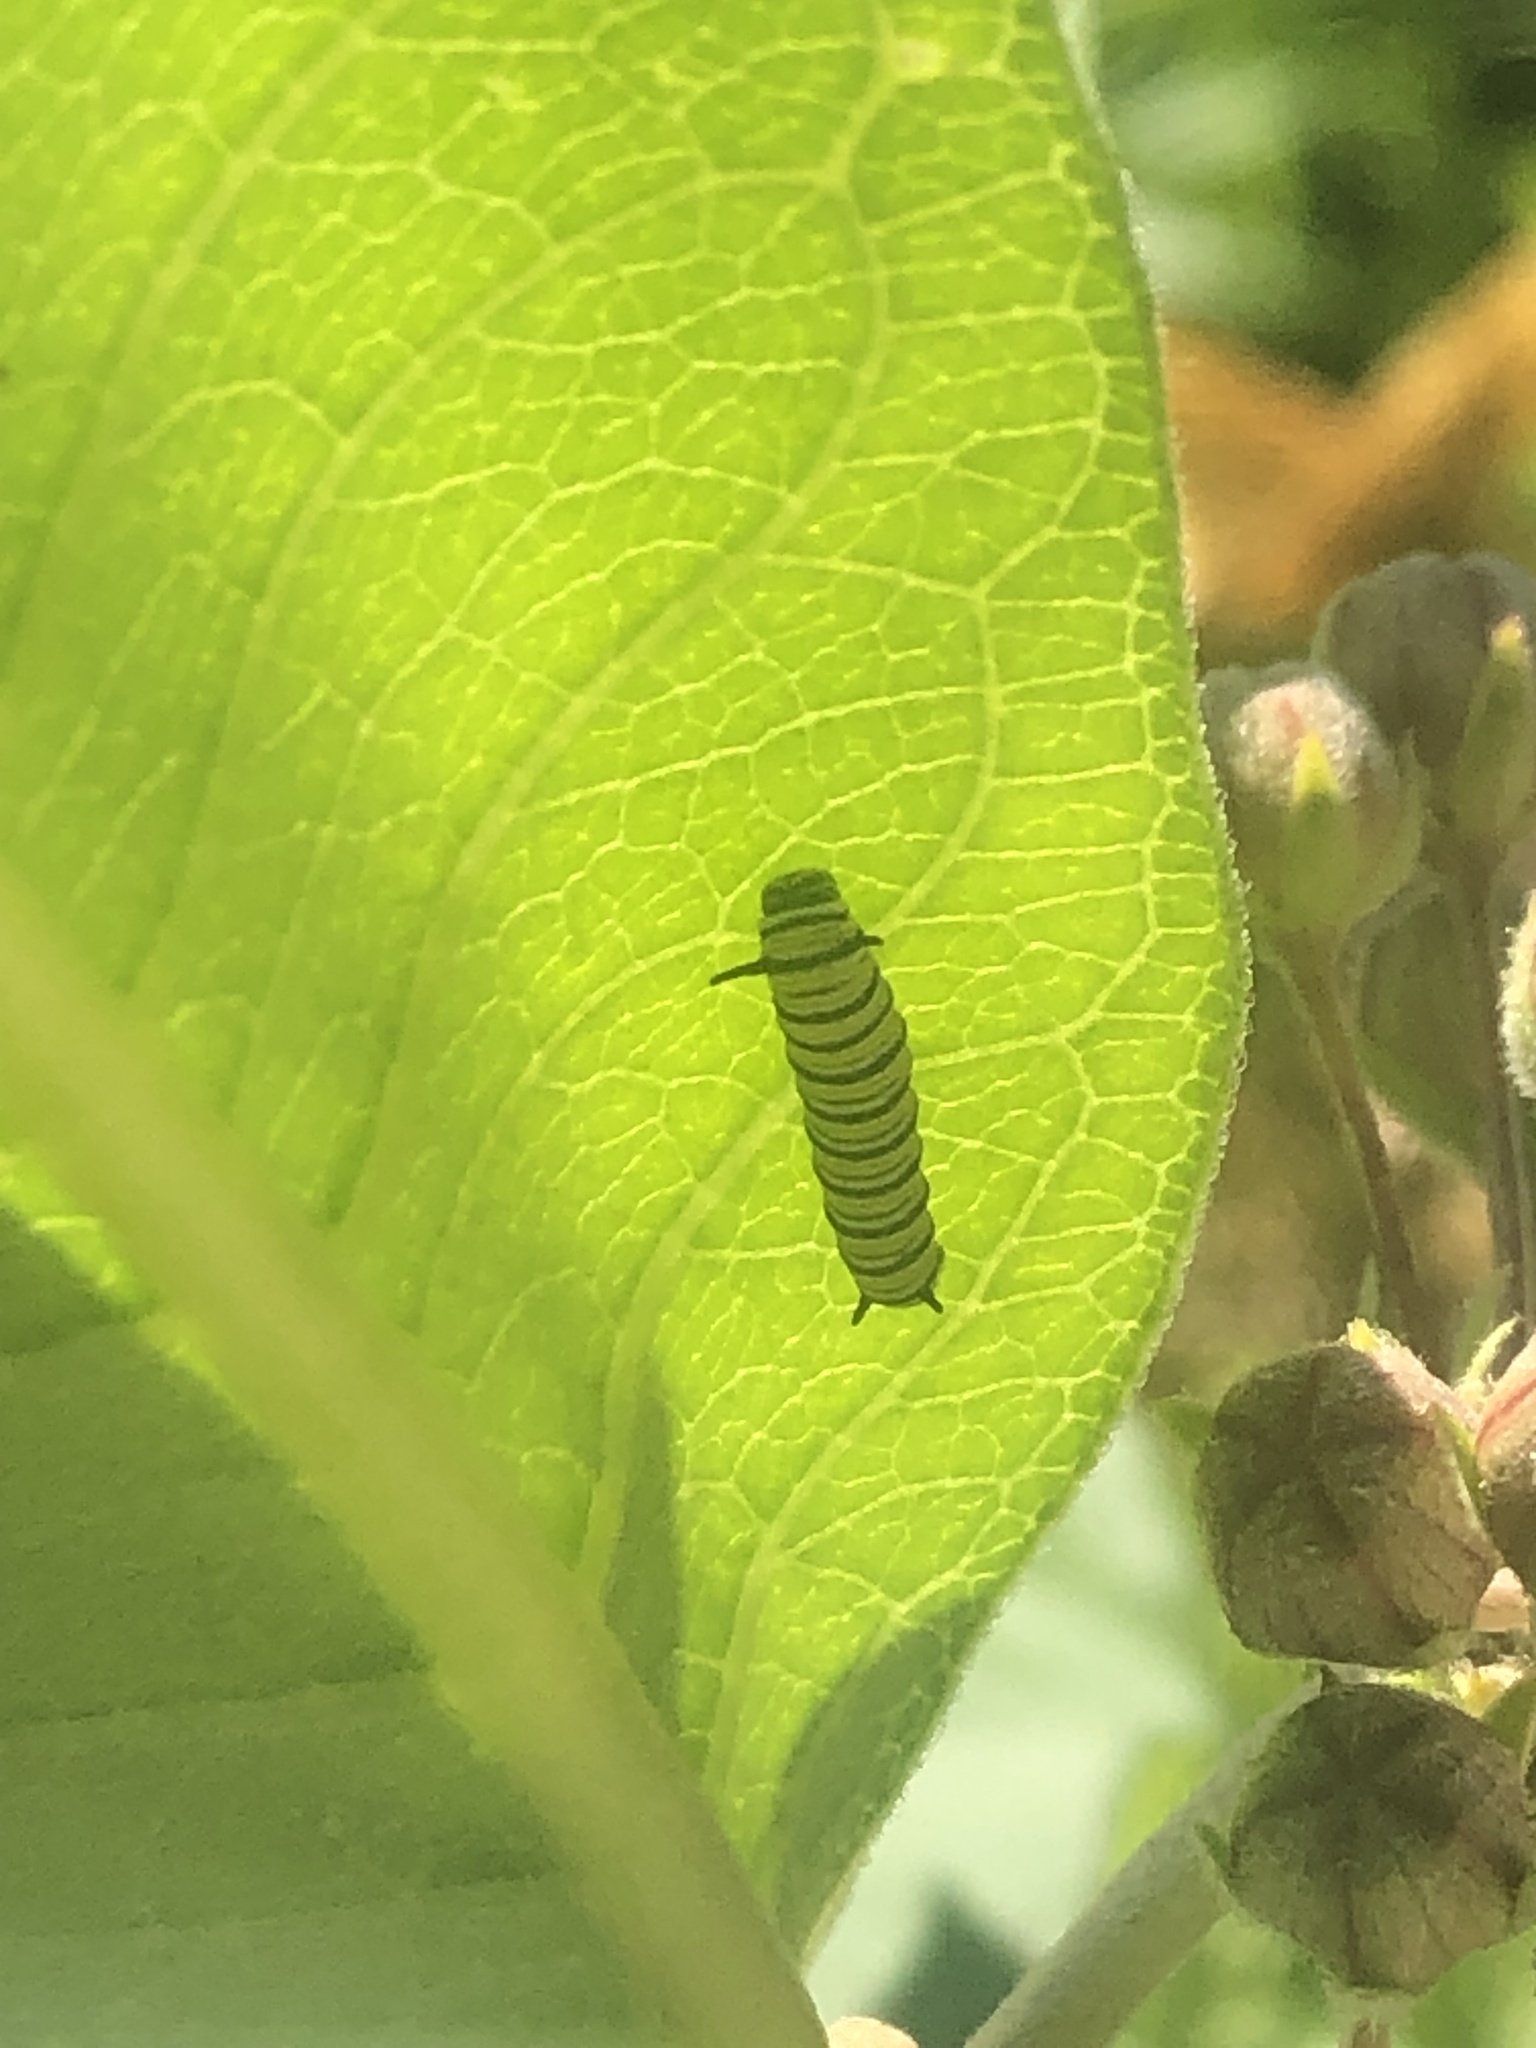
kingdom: Animalia
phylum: Arthropoda
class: Insecta
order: Lepidoptera
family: Nymphalidae
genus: Danaus
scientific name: Danaus plexippus
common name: Monarch
